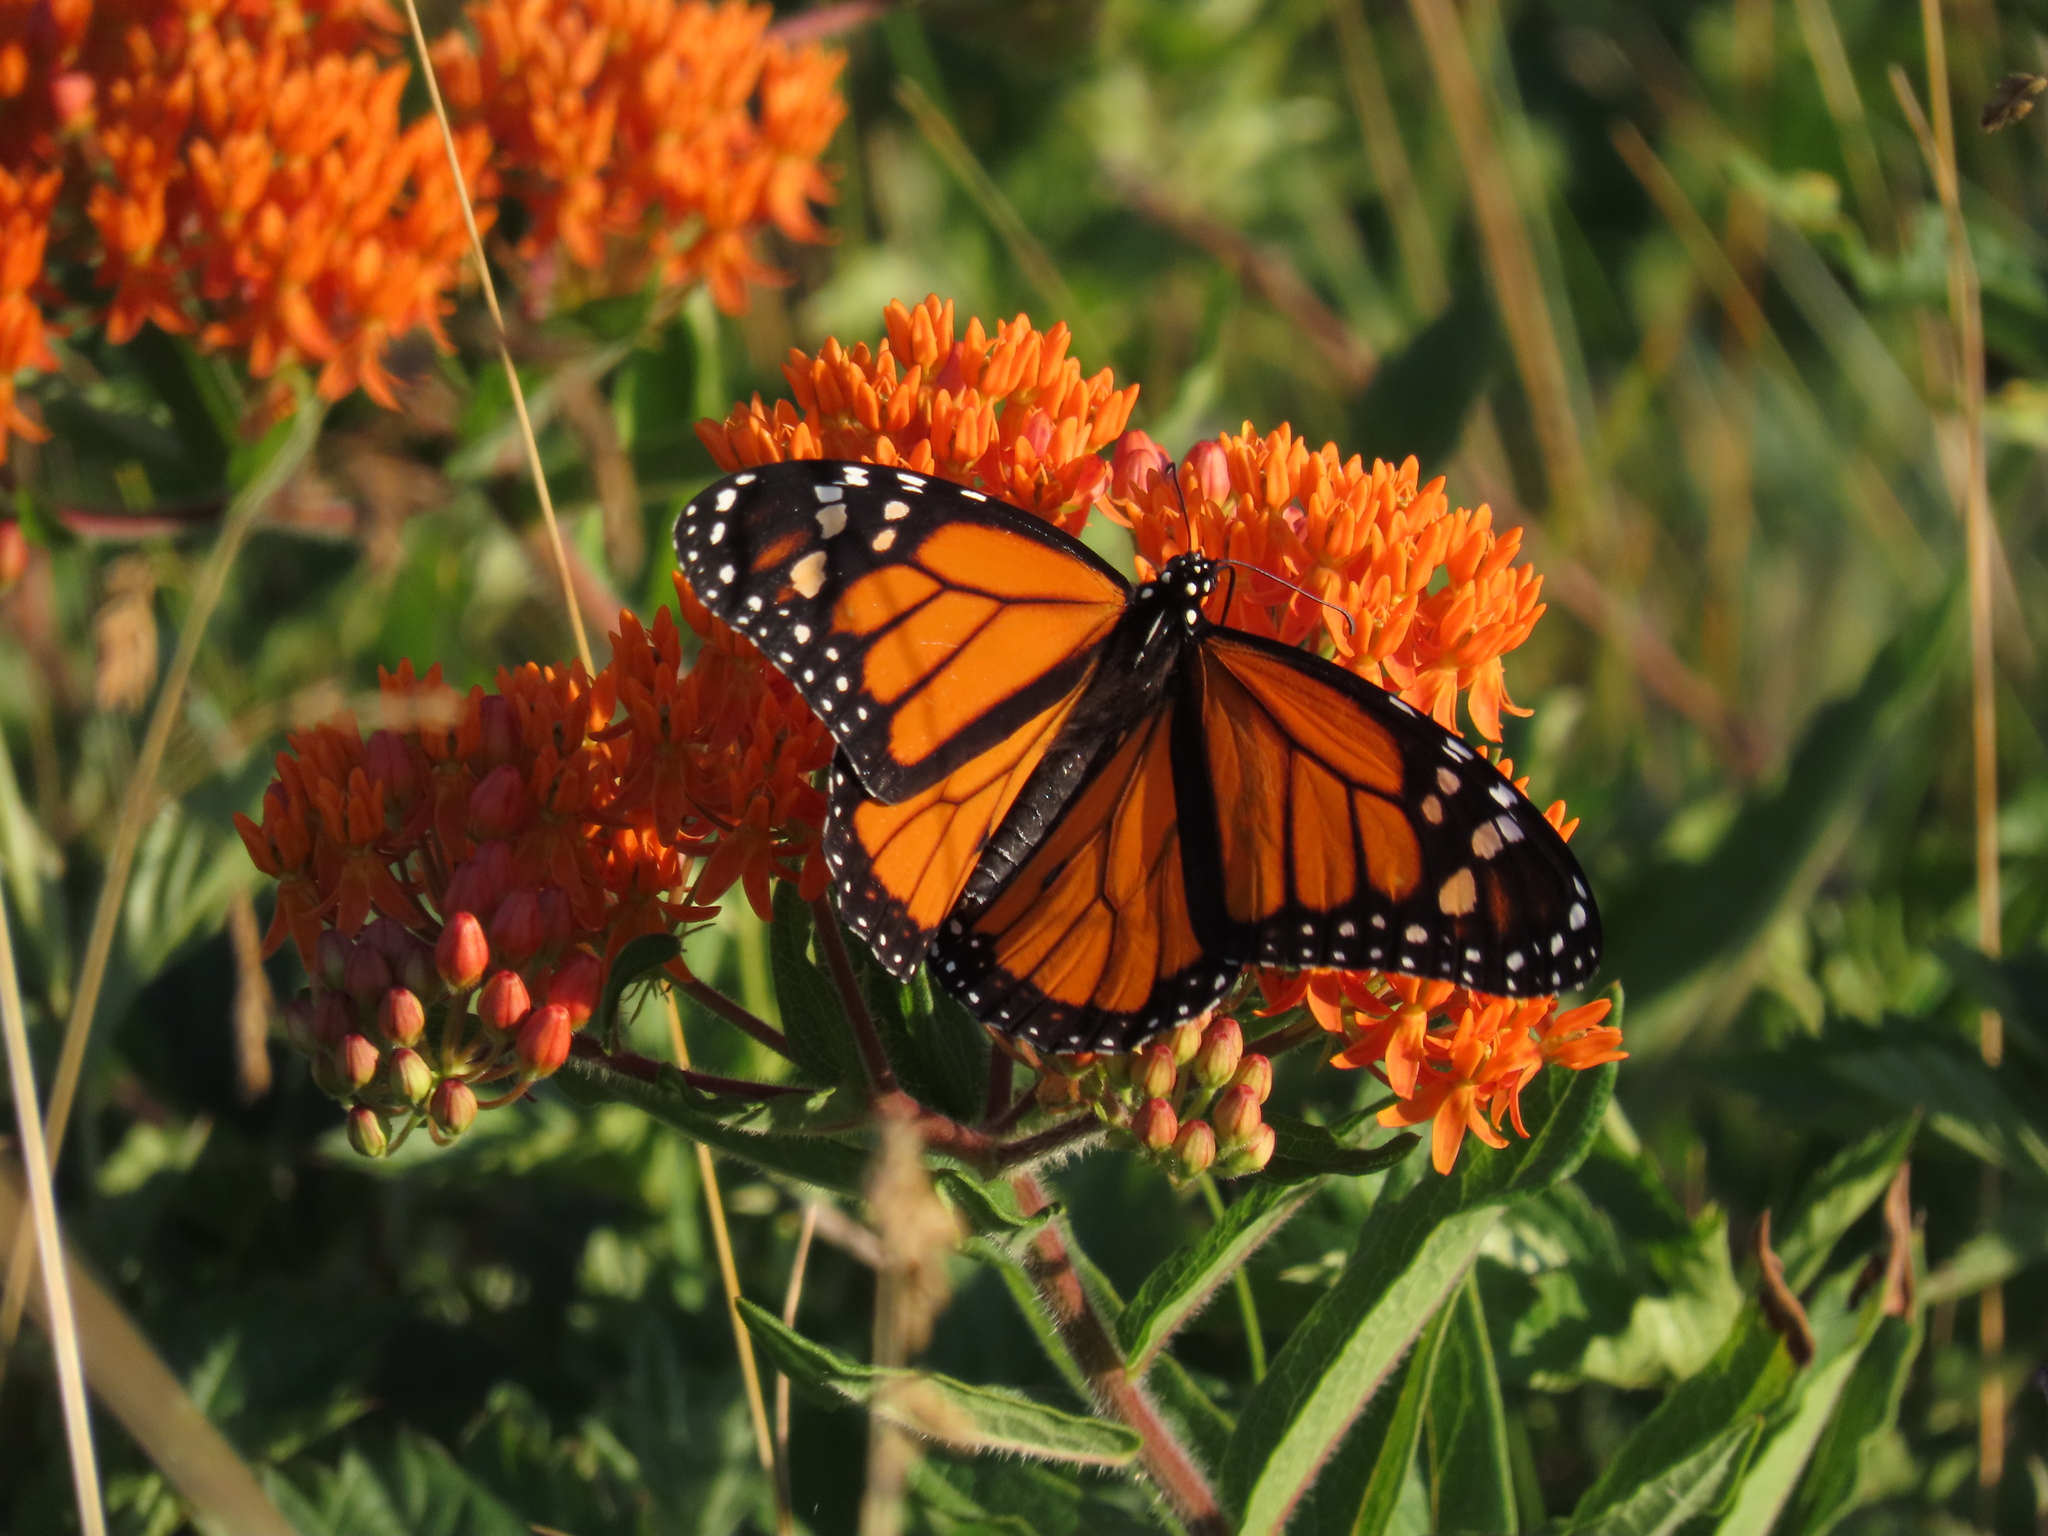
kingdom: Animalia
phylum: Arthropoda
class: Insecta
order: Lepidoptera
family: Nymphalidae
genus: Danaus
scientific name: Danaus plexippus
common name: Monarch
